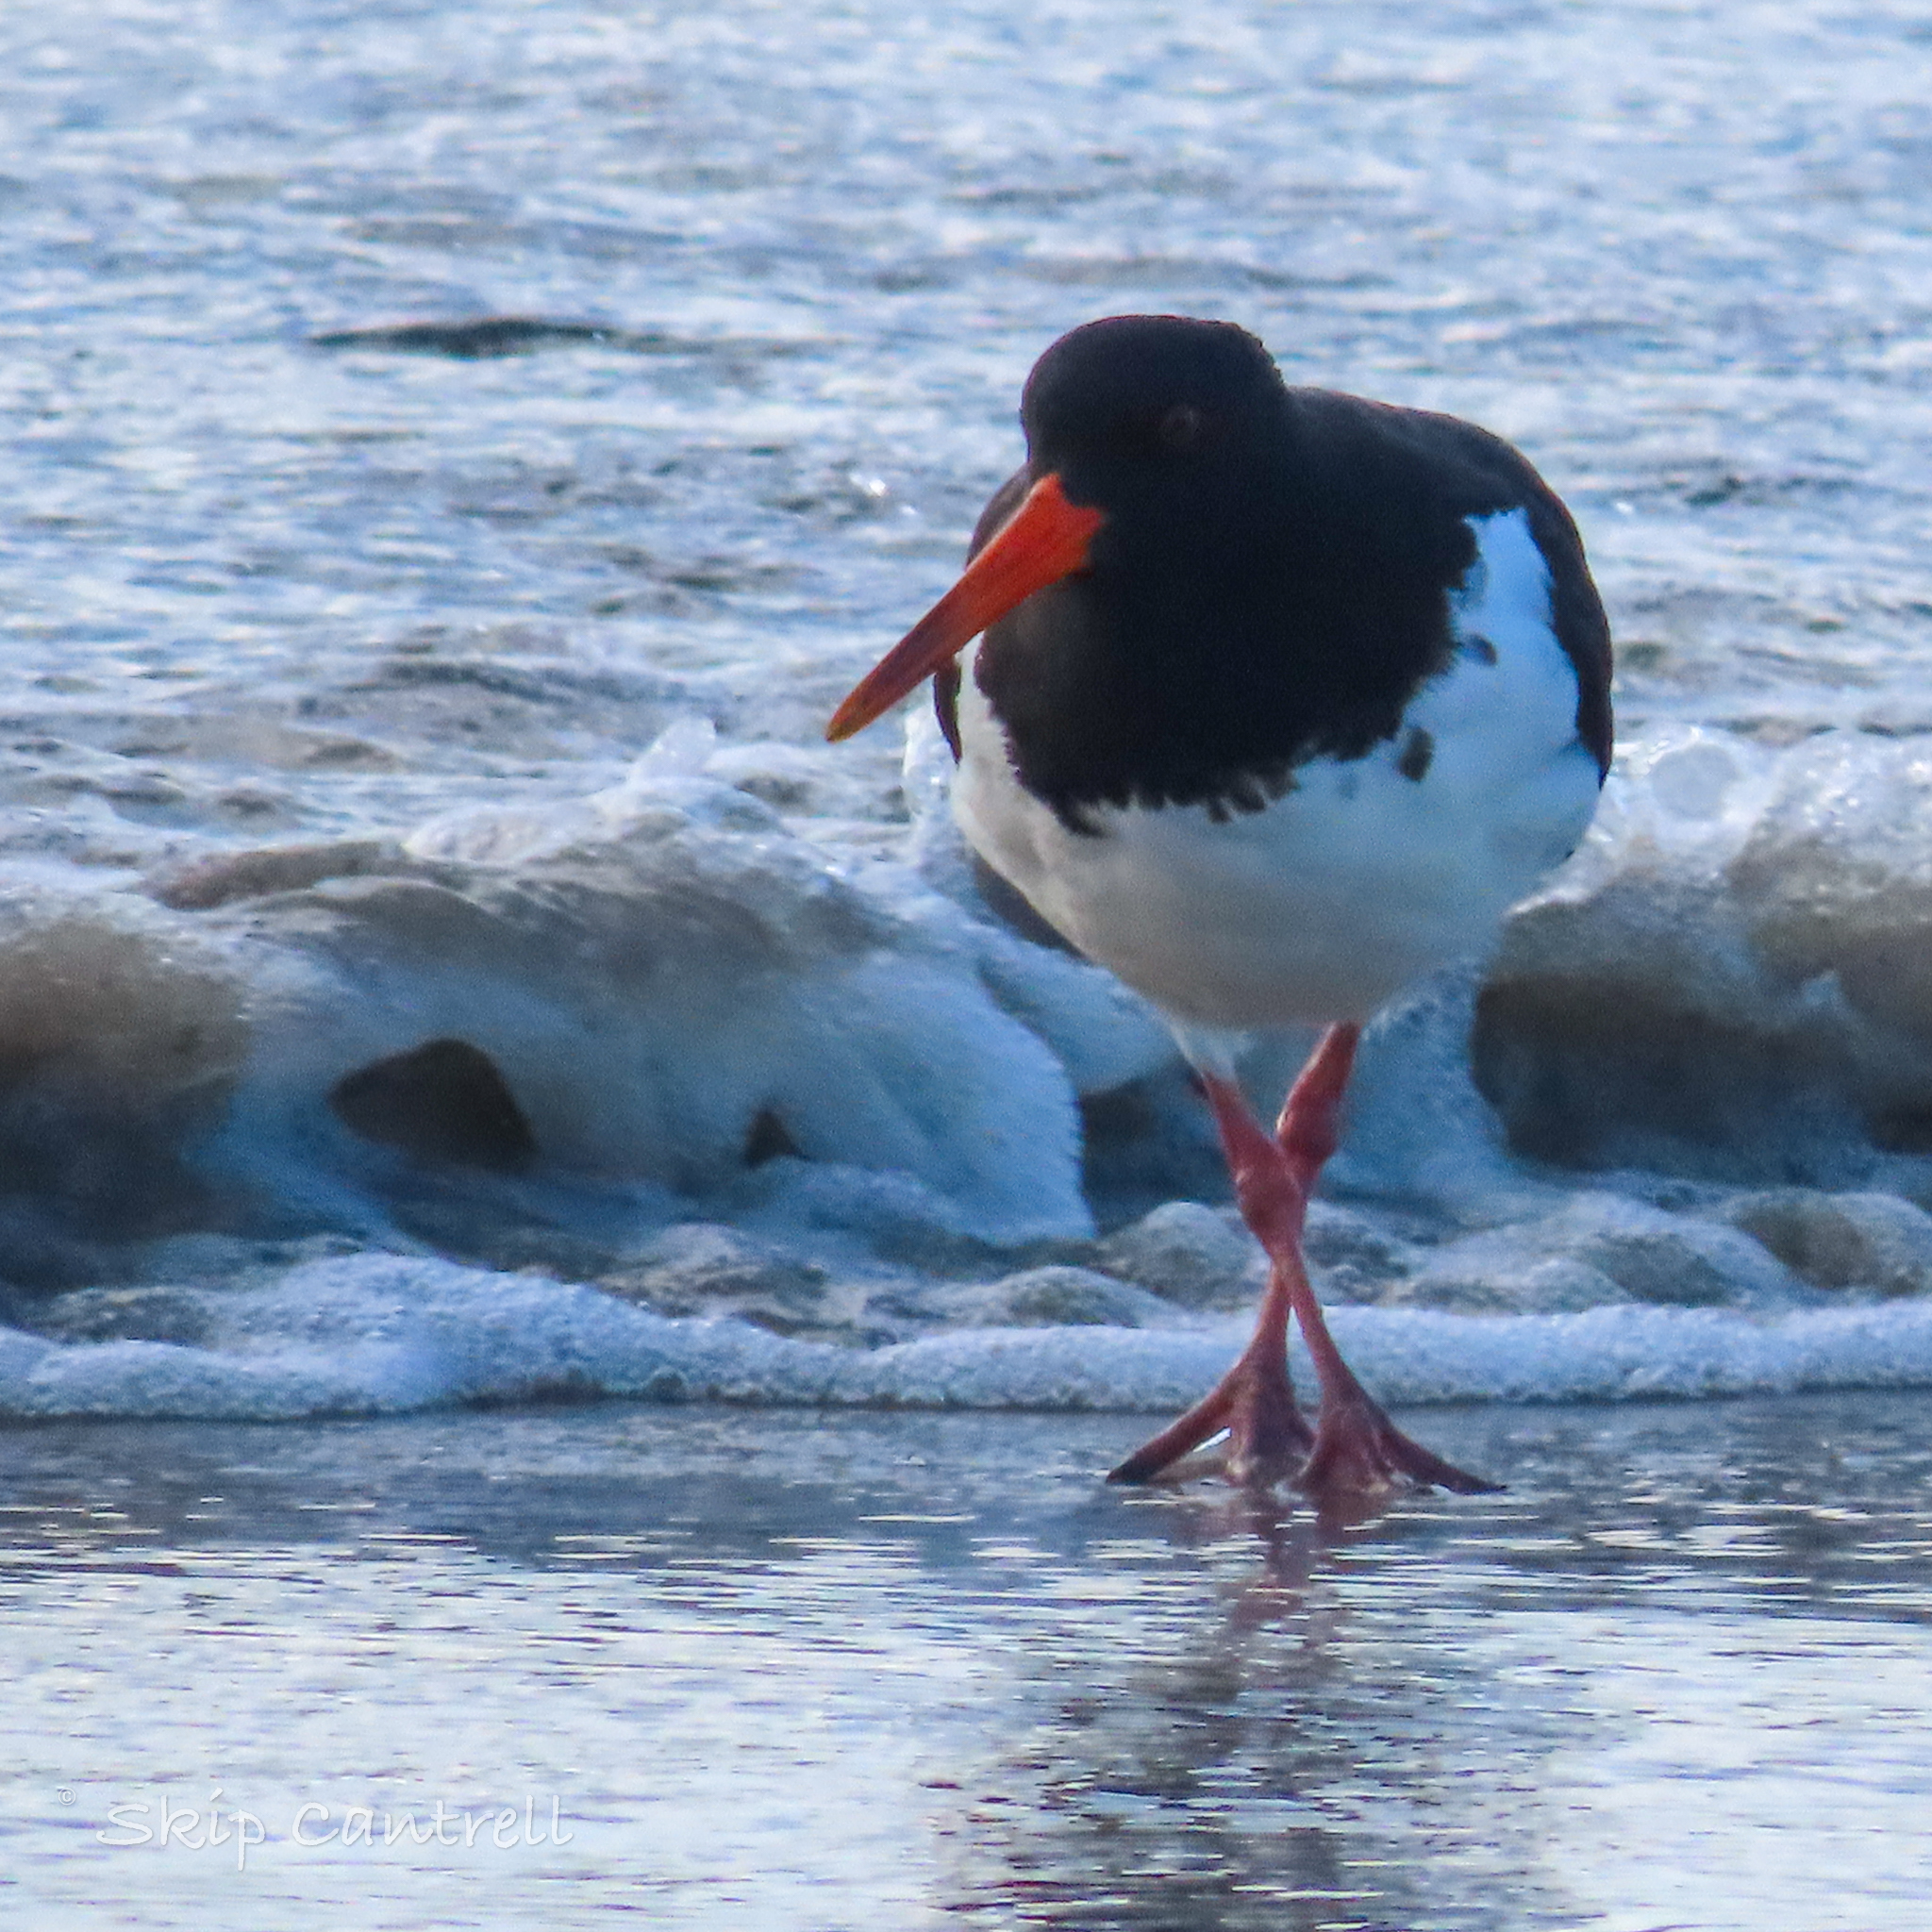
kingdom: Animalia
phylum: Chordata
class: Aves
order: Charadriiformes
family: Haematopodidae
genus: Haematopus
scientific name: Haematopus ostralegus
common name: Eurasian oystercatcher
